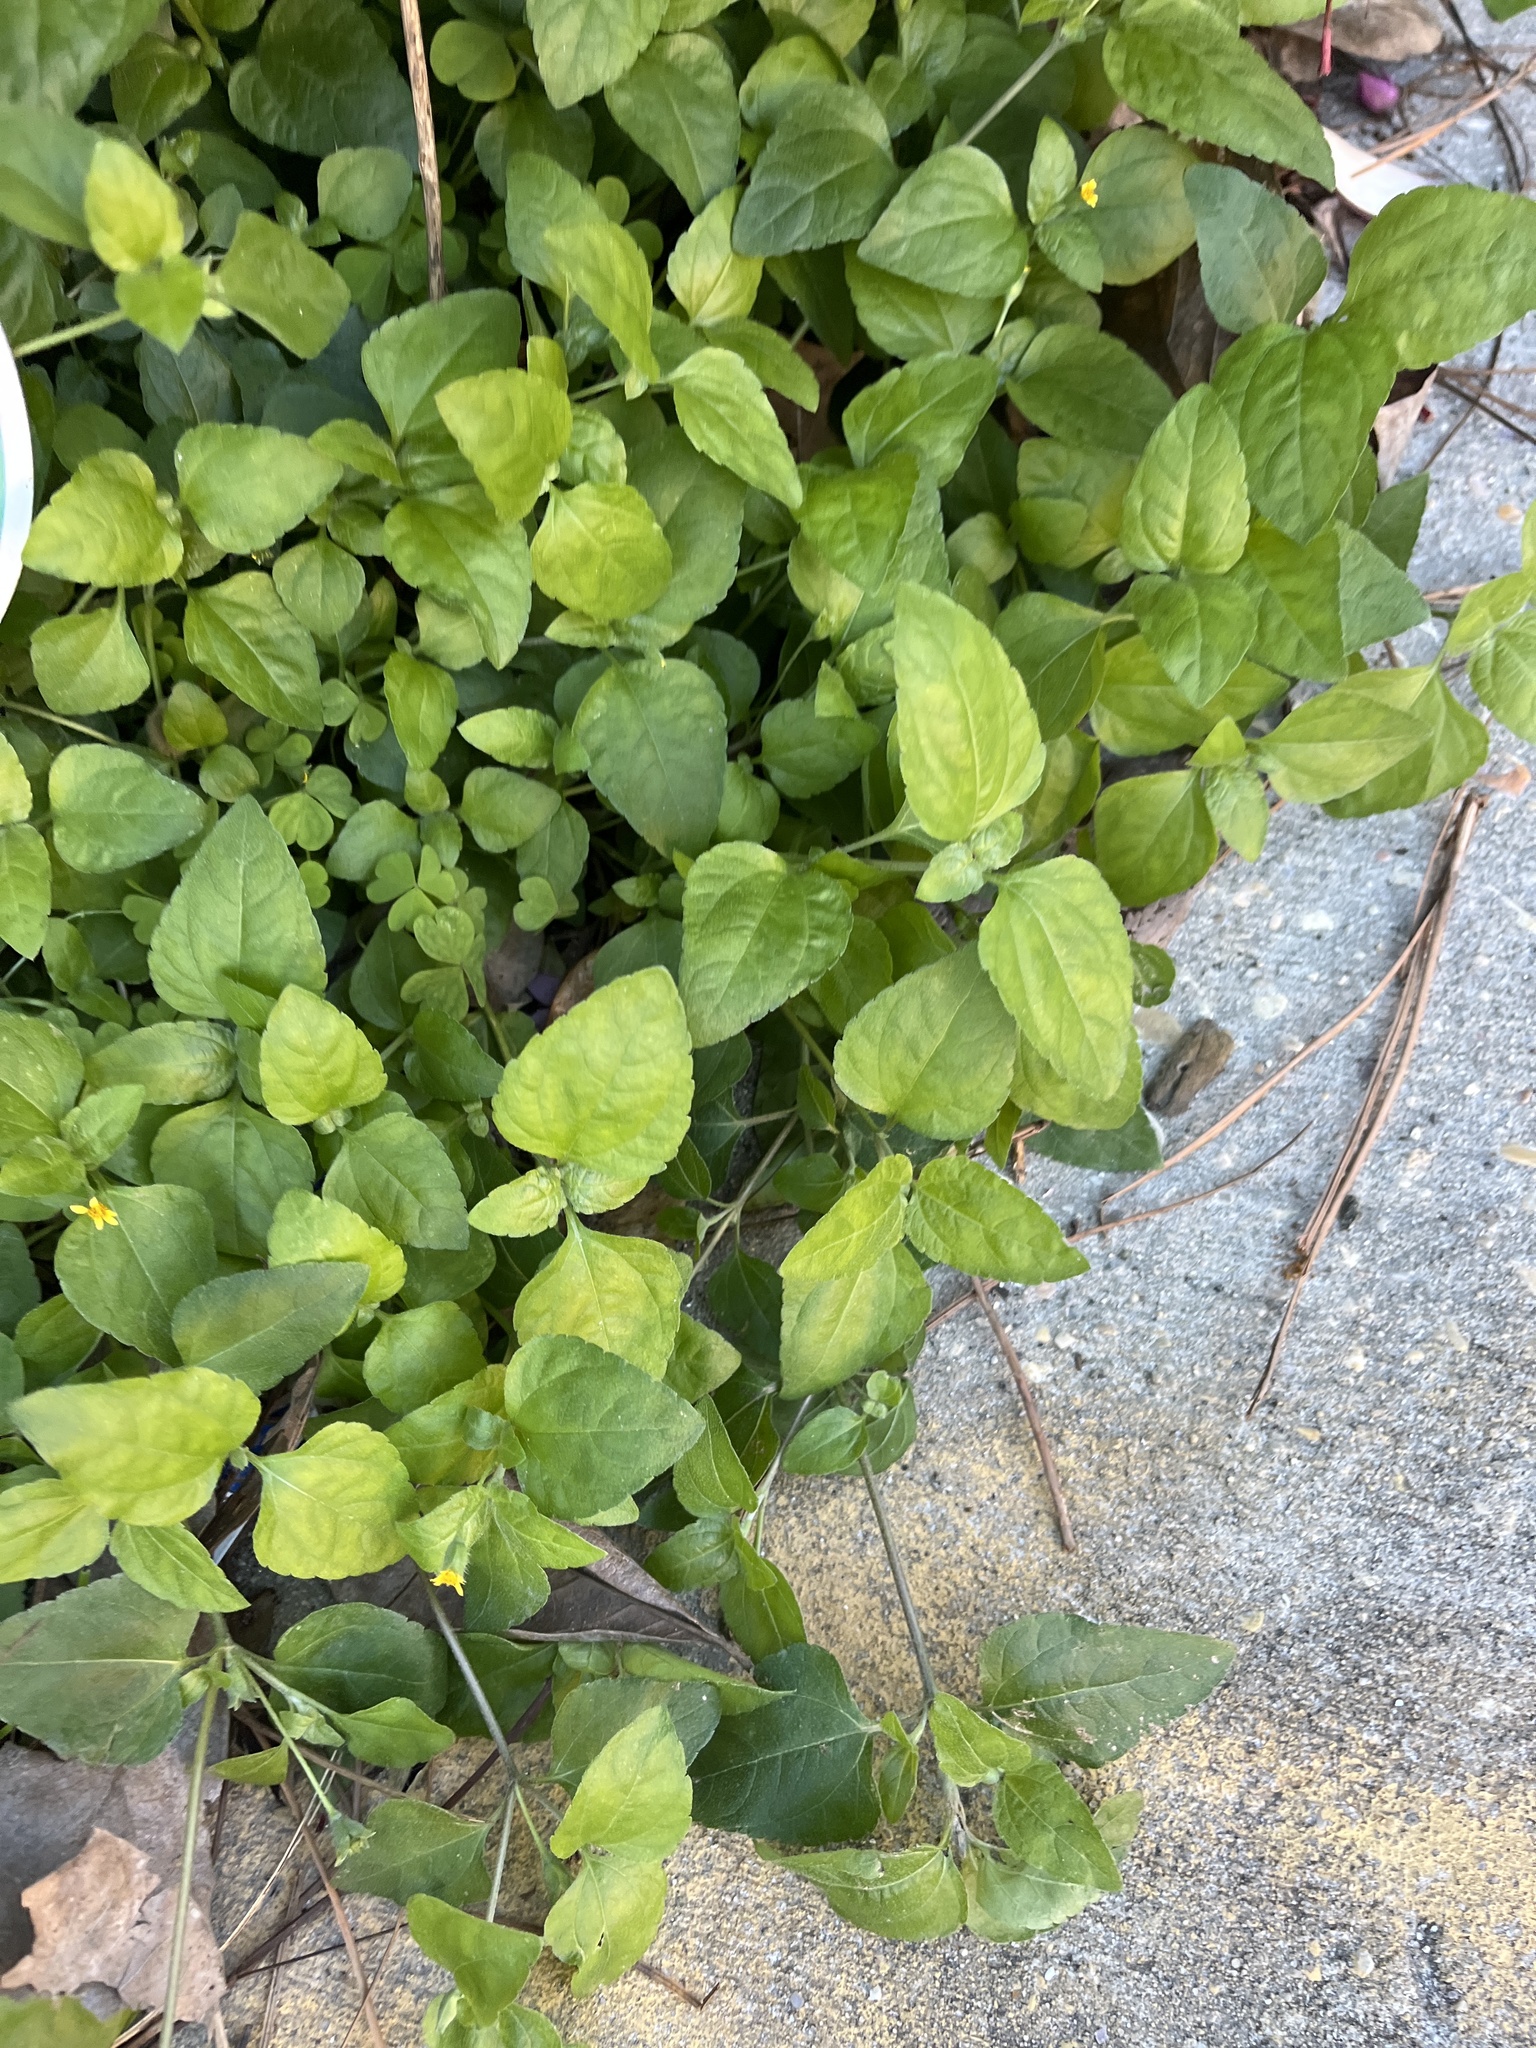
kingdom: Plantae
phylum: Tracheophyta
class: Magnoliopsida
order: Asterales
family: Asteraceae
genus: Calyptocarpus
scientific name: Calyptocarpus vialis
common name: Straggler daisy
